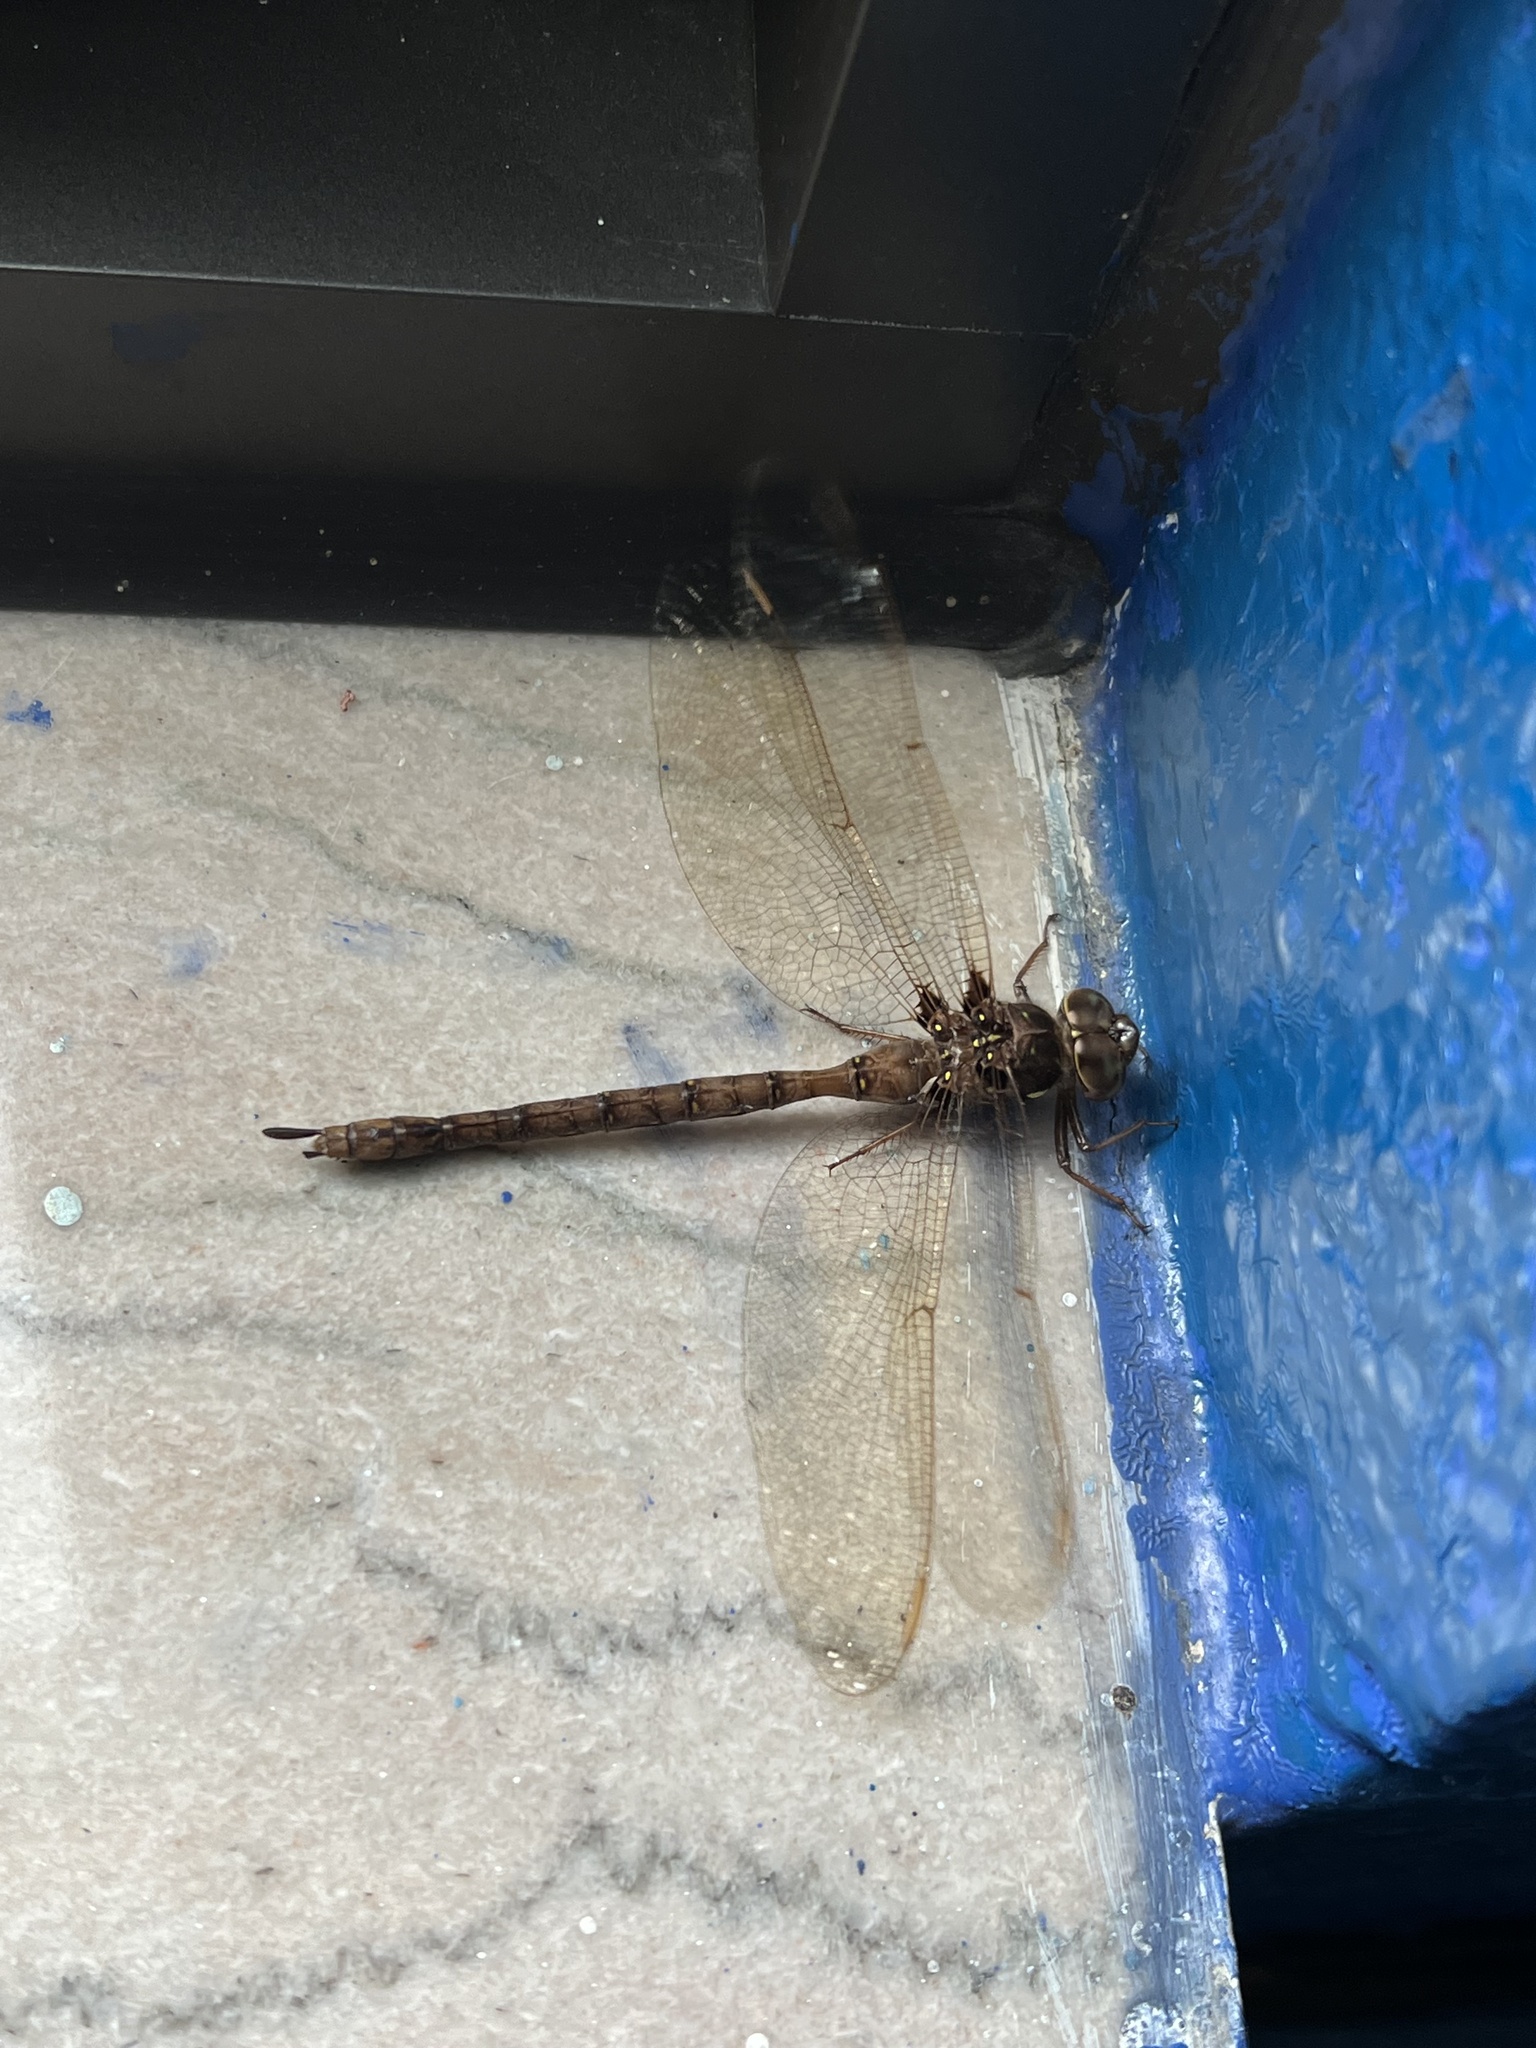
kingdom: Animalia
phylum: Arthropoda
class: Insecta
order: Odonata
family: Aeshnidae
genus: Boyeria
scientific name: Boyeria vinosa
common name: Fawn darner
